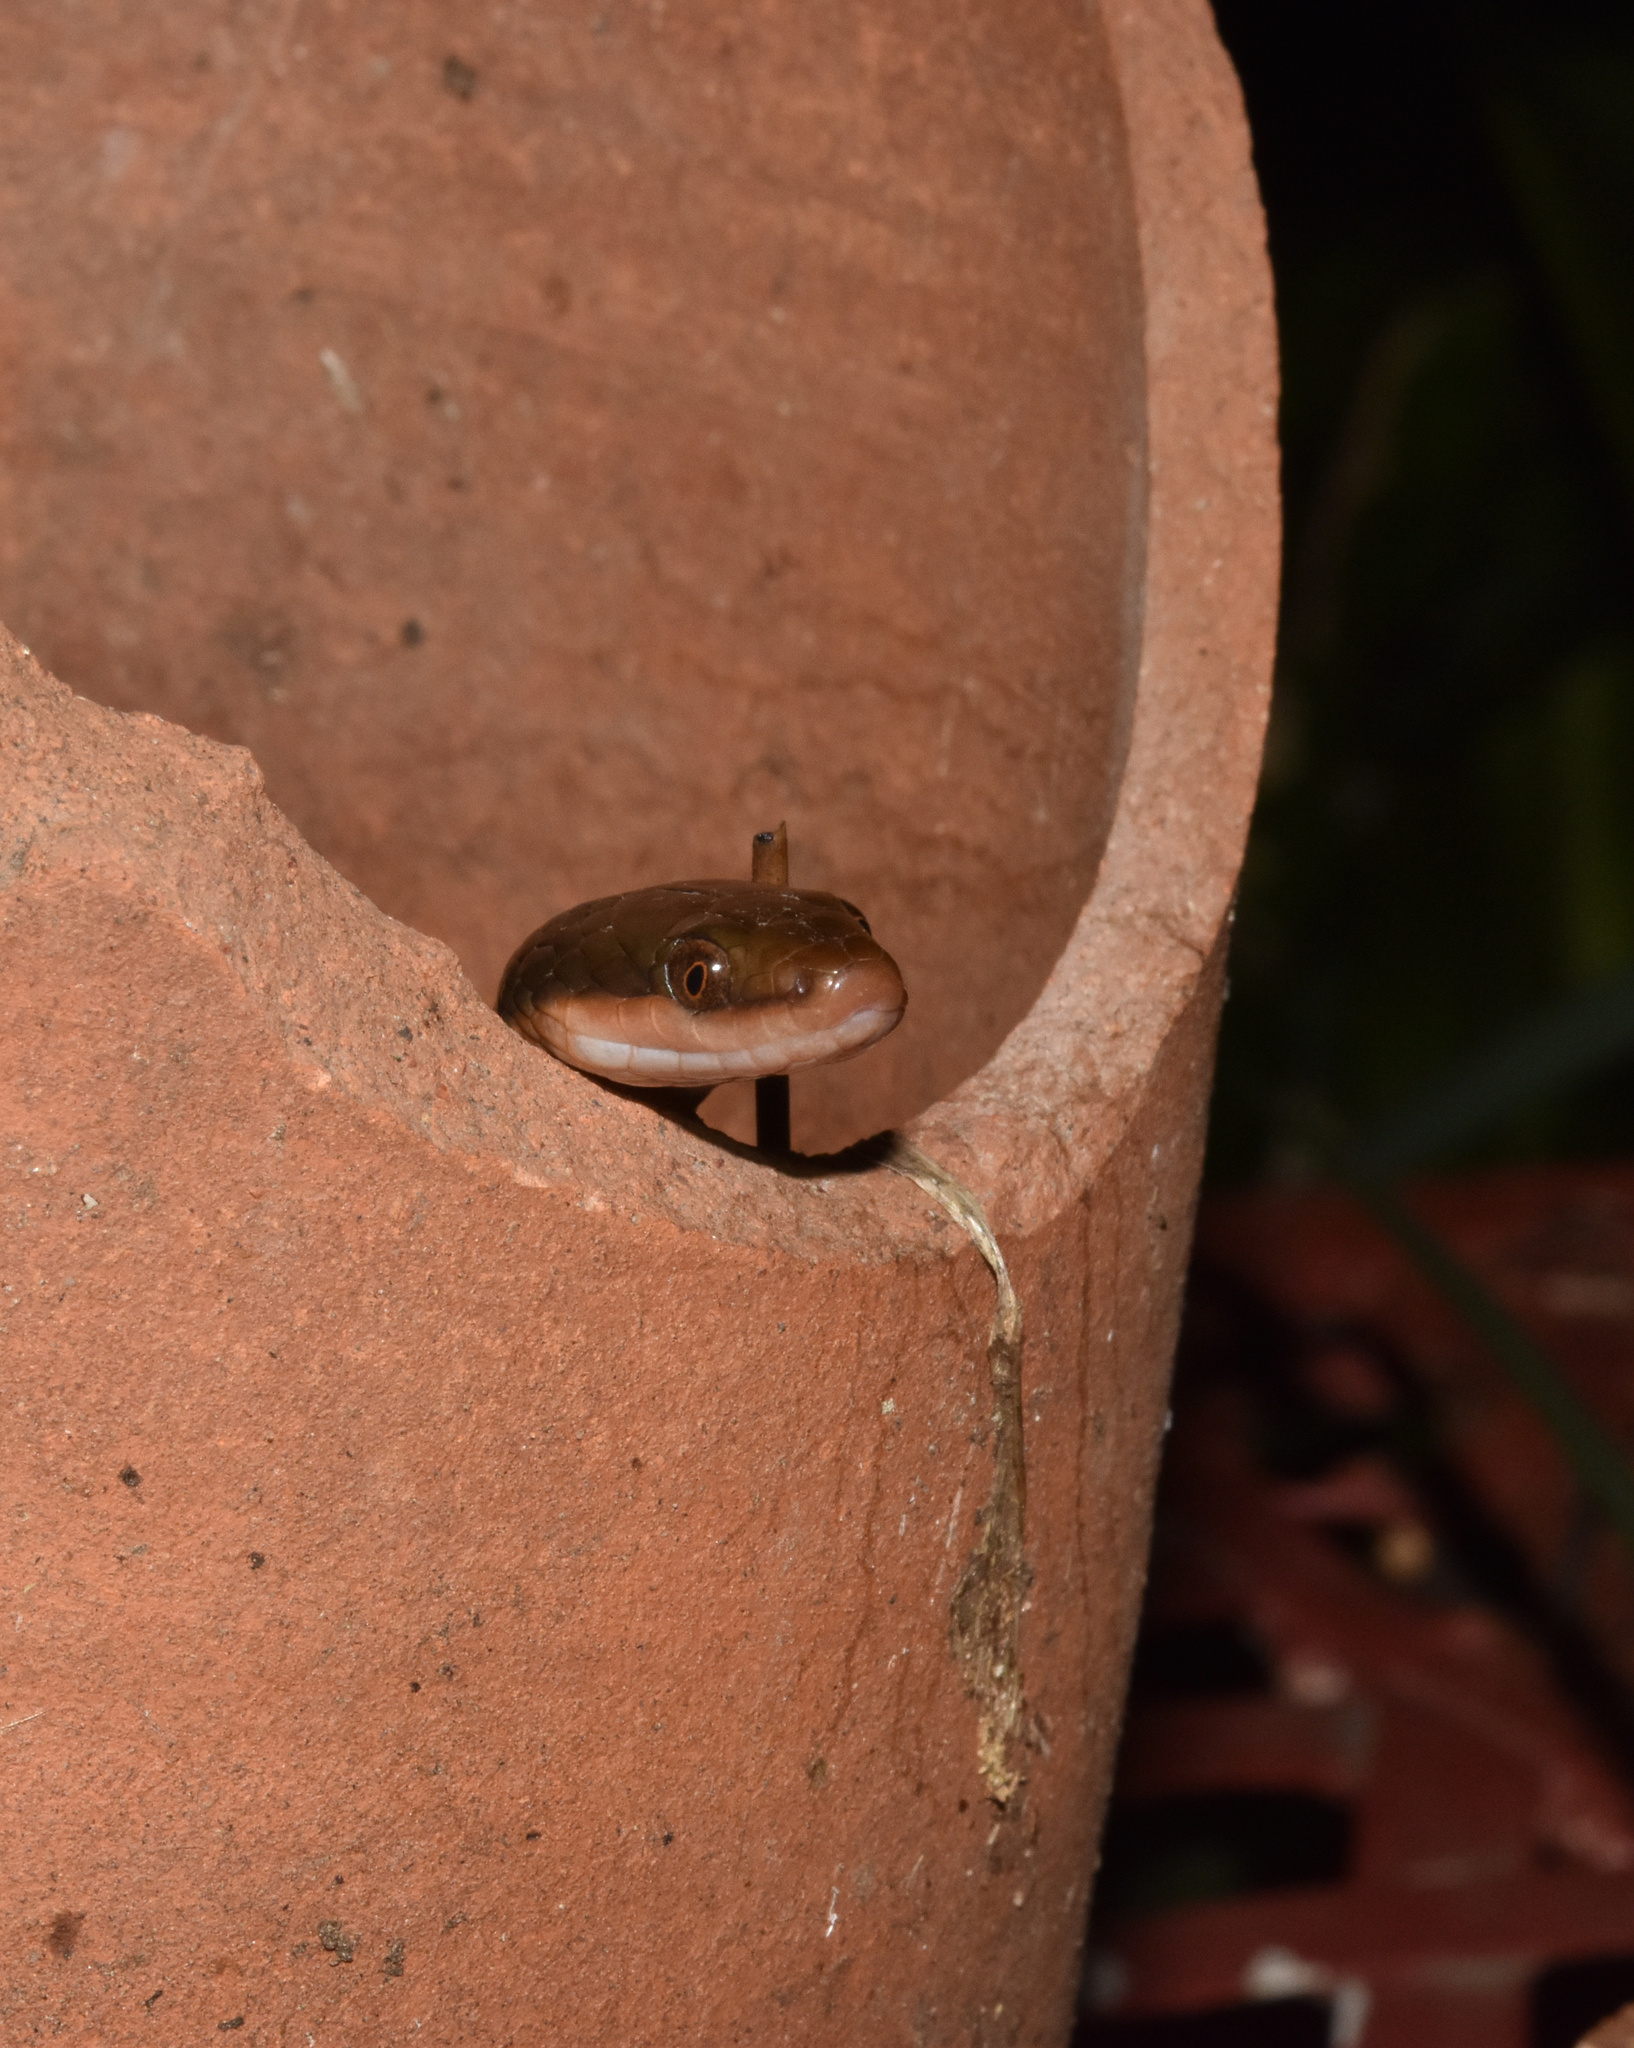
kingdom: Animalia
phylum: Chordata
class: Squamata
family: Lamprophiidae
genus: Lycodonomorphus
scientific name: Lycodonomorphus rufulus
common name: Brown water snake
